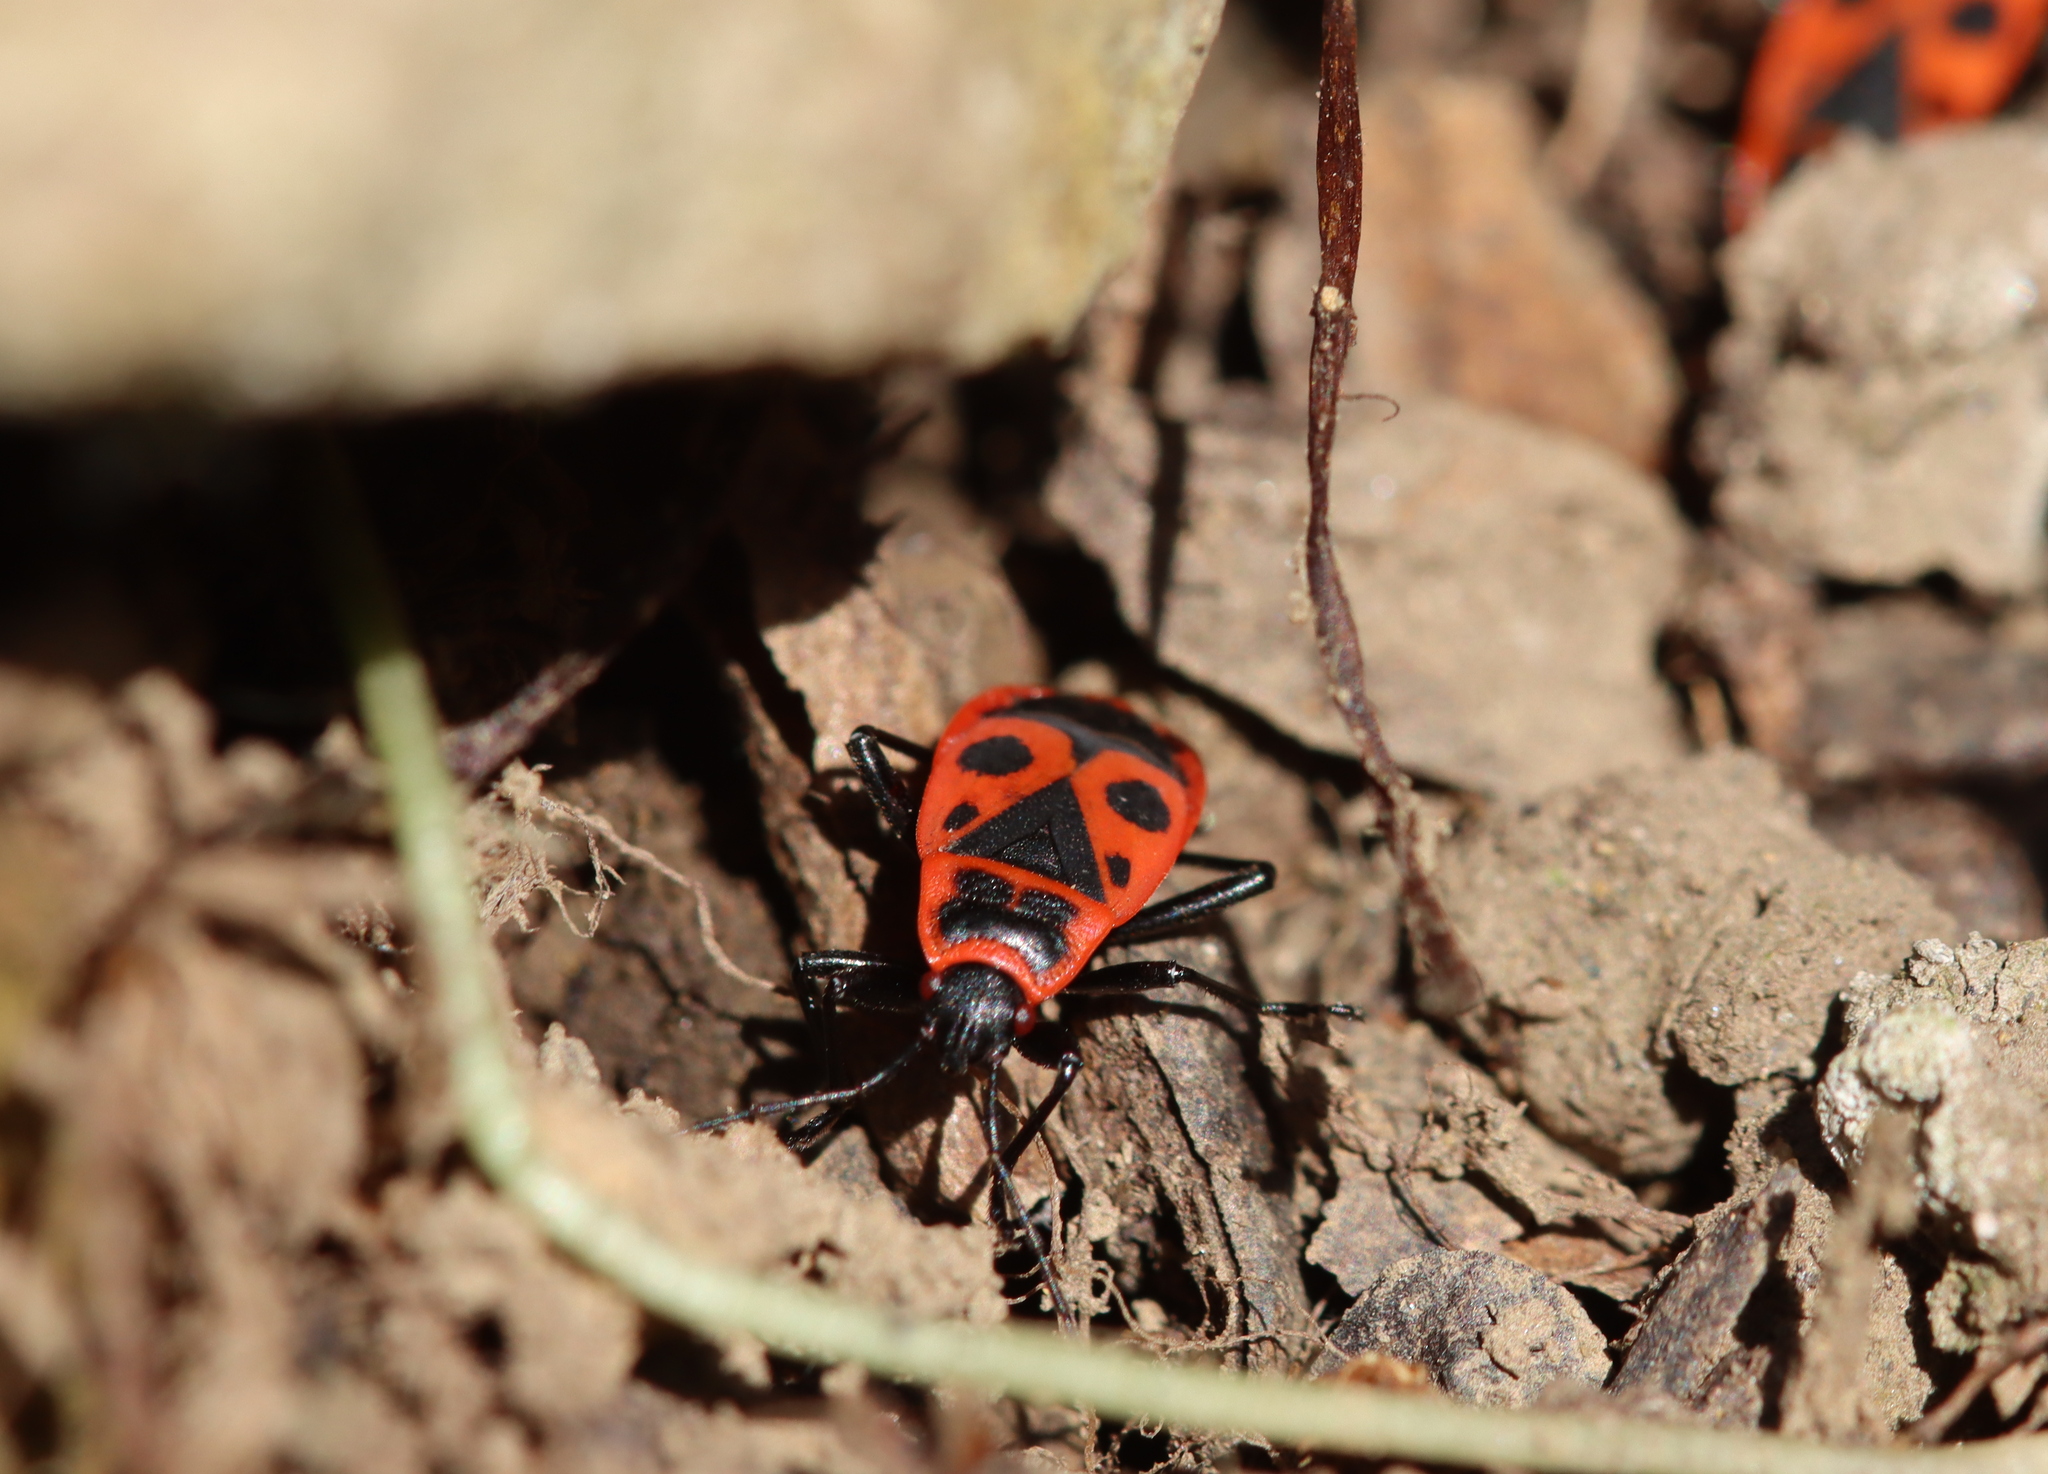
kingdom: Animalia
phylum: Arthropoda
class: Insecta
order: Hemiptera
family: Pyrrhocoridae
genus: Pyrrhocoris
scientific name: Pyrrhocoris apterus
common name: Firebug
